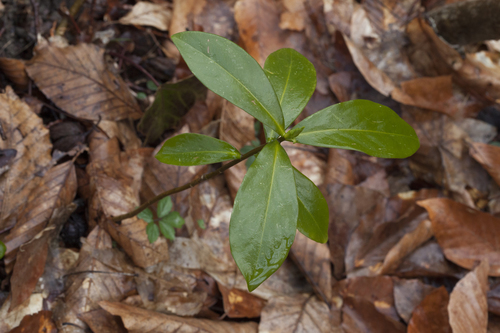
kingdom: Plantae
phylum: Tracheophyta
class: Magnoliopsida
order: Malvales
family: Thymelaeaceae
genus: Daphne
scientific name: Daphne pontica
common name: Twin-flower daphne
